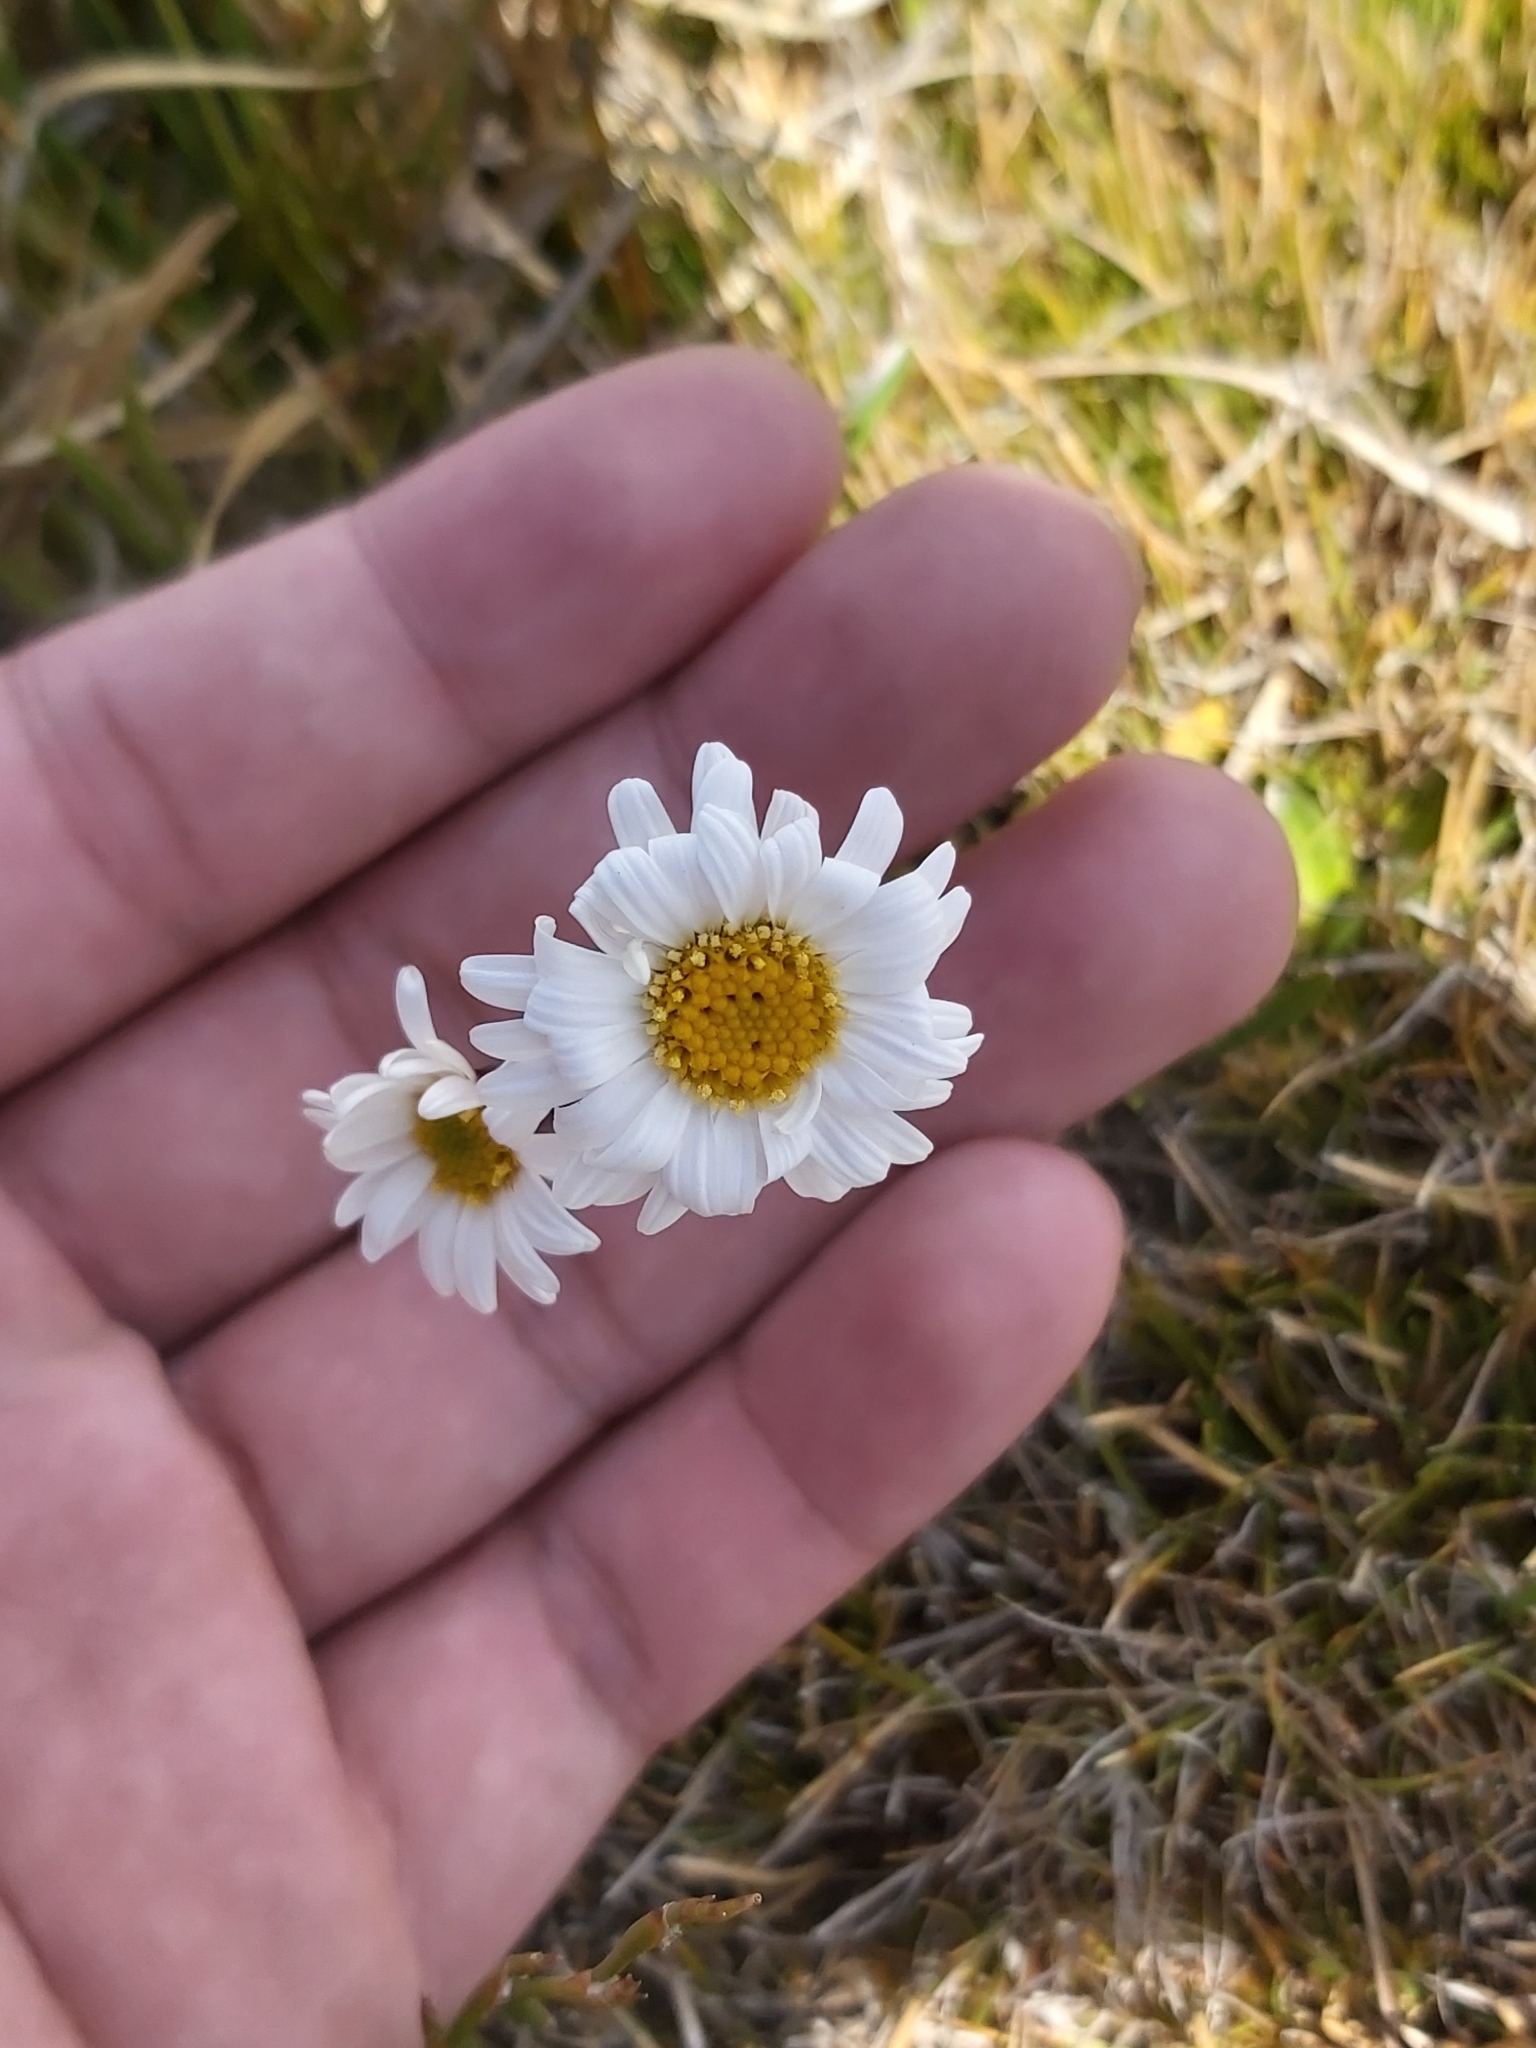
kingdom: Plantae
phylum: Tracheophyta
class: Magnoliopsida
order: Asterales
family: Asteraceae
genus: Brachyscome
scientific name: Brachyscome scapigera
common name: Tufted daisy
